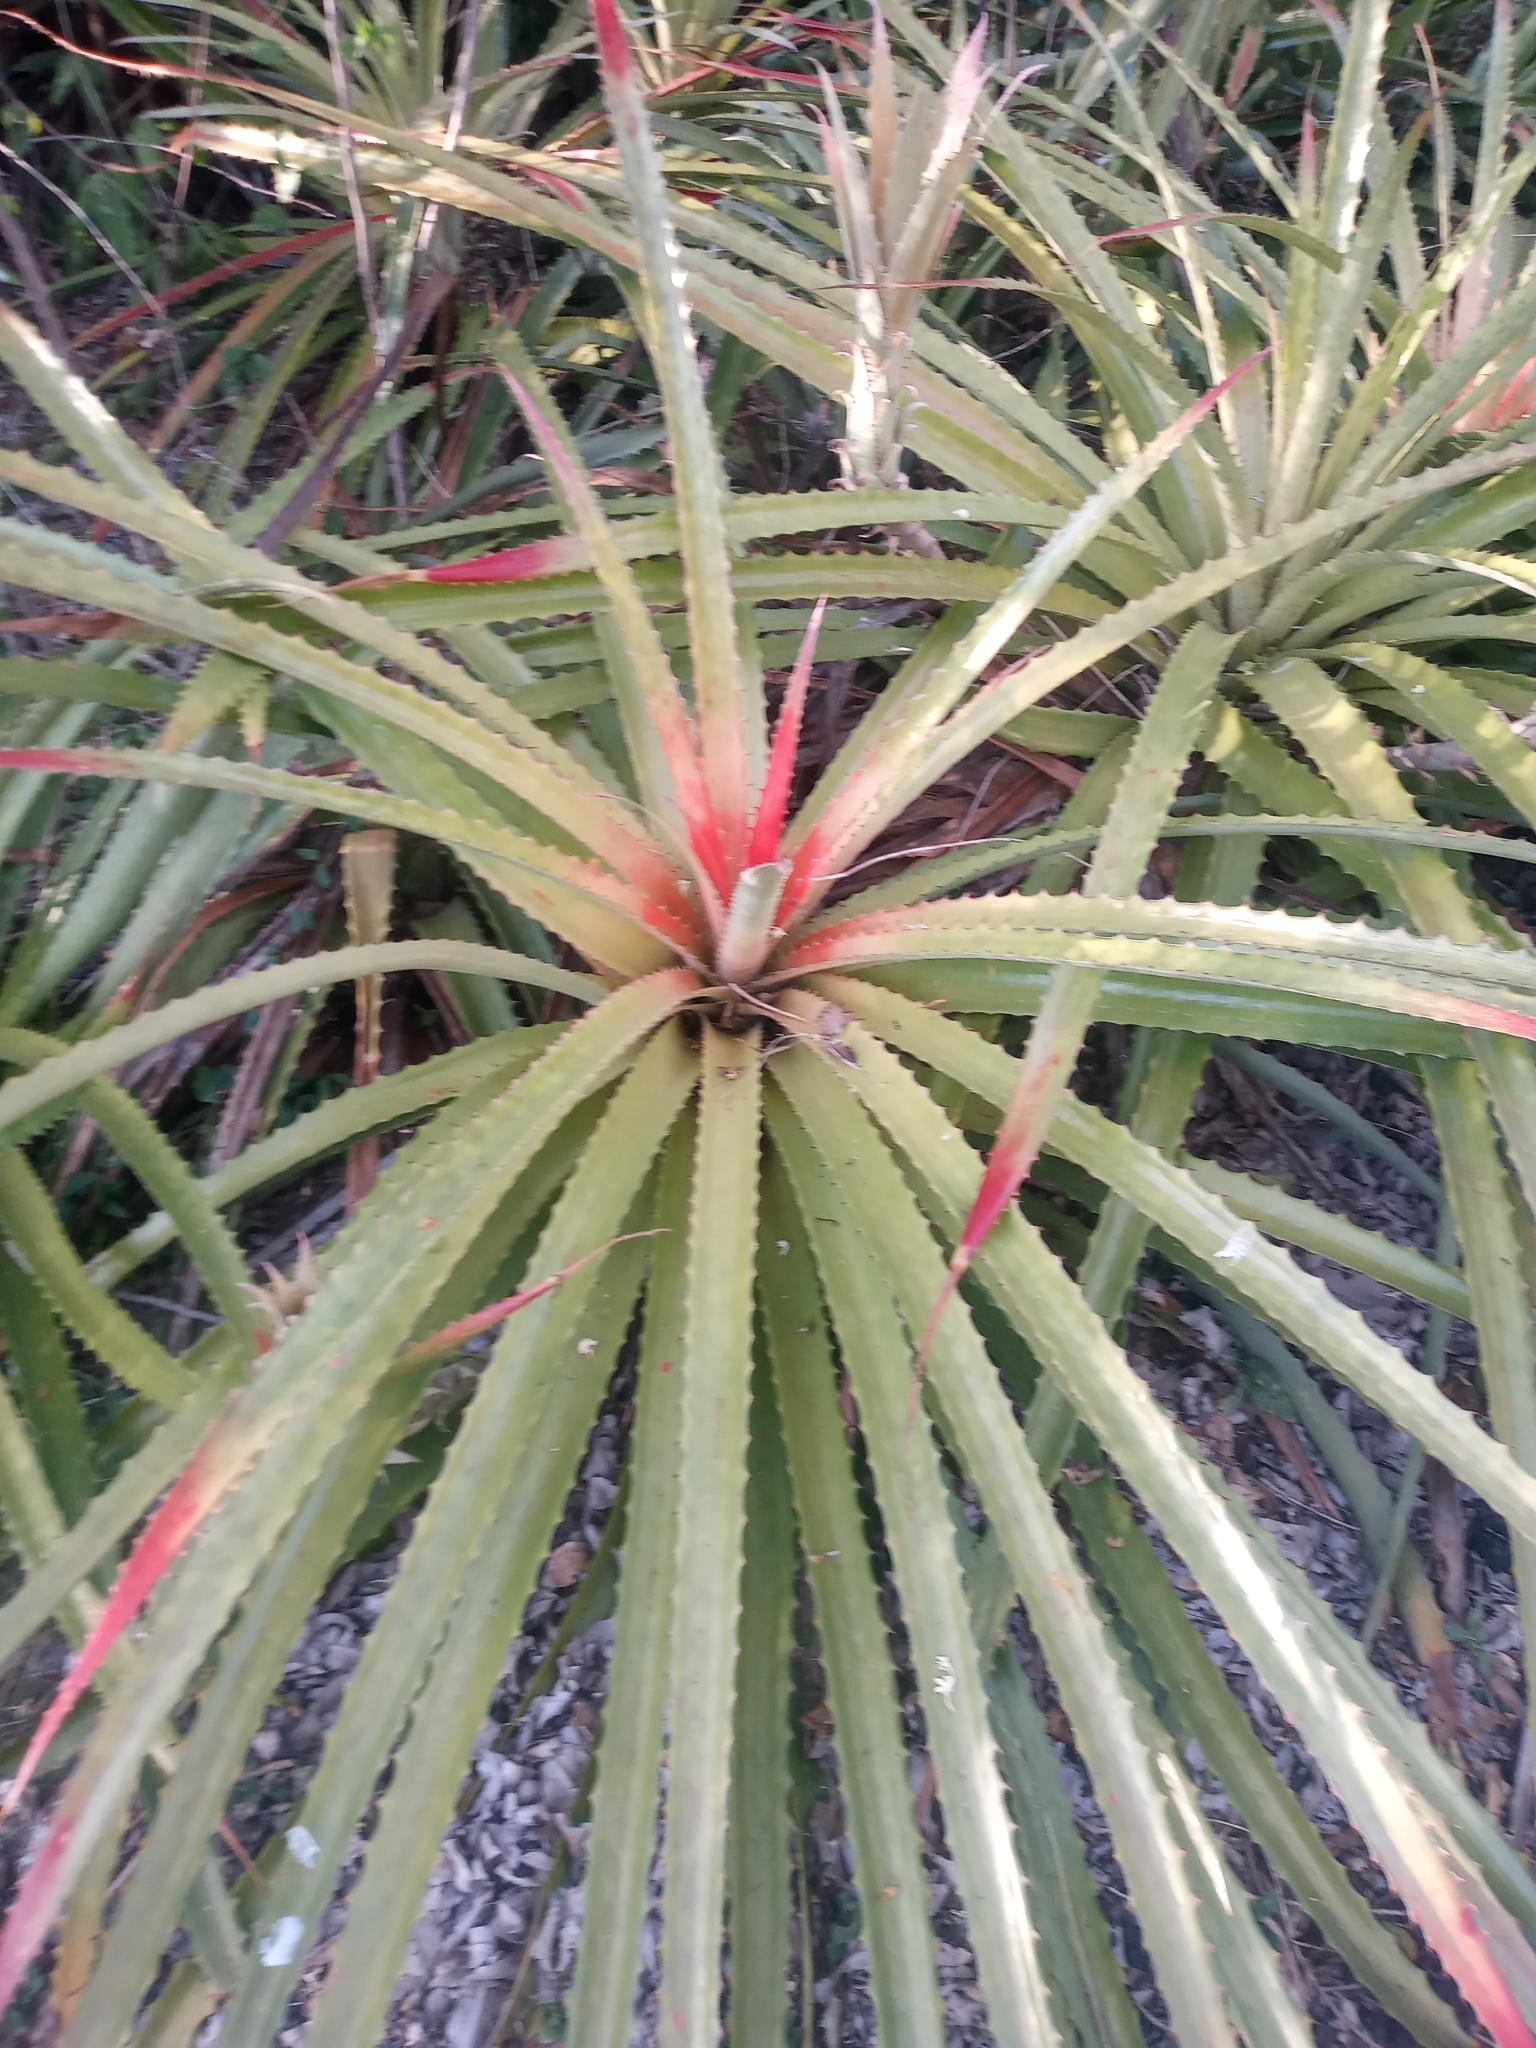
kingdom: Plantae
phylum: Tracheophyta
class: Liliopsida
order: Poales
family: Bromeliaceae
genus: Bromelia
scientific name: Bromelia pinguin
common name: Pinguin
